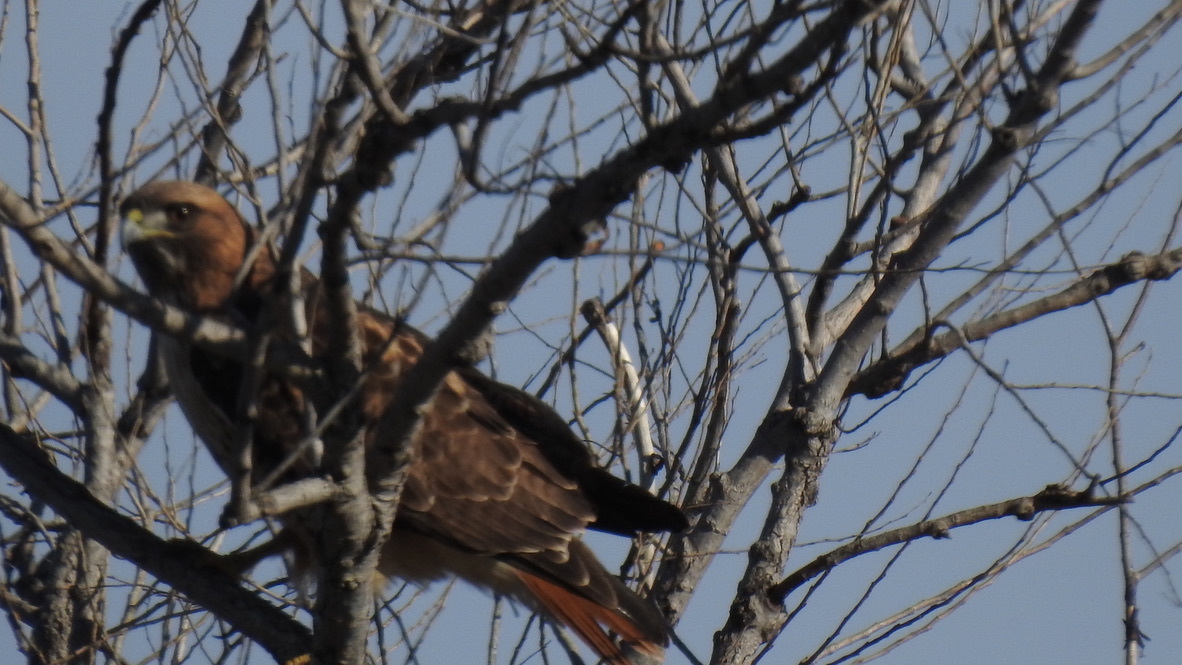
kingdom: Animalia
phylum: Chordata
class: Aves
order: Accipitriformes
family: Accipitridae
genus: Buteo
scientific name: Buteo jamaicensis
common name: Red-tailed hawk
